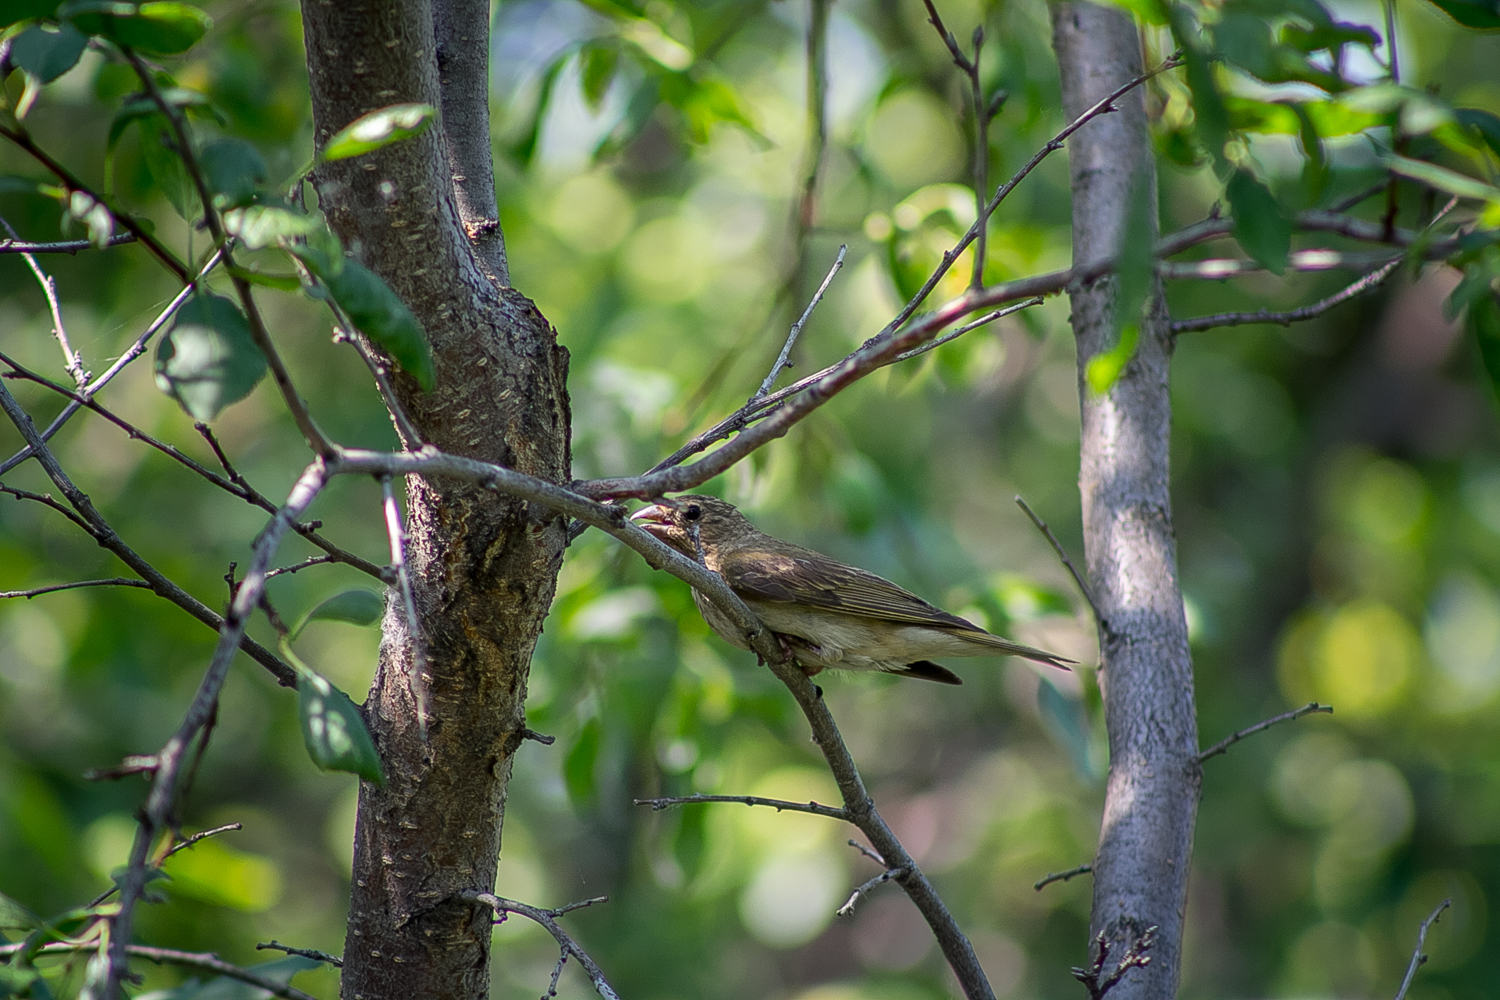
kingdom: Animalia
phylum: Chordata
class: Aves
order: Passeriformes
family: Fringillidae
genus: Carpodacus
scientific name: Carpodacus erythrinus
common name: Common rosefinch
